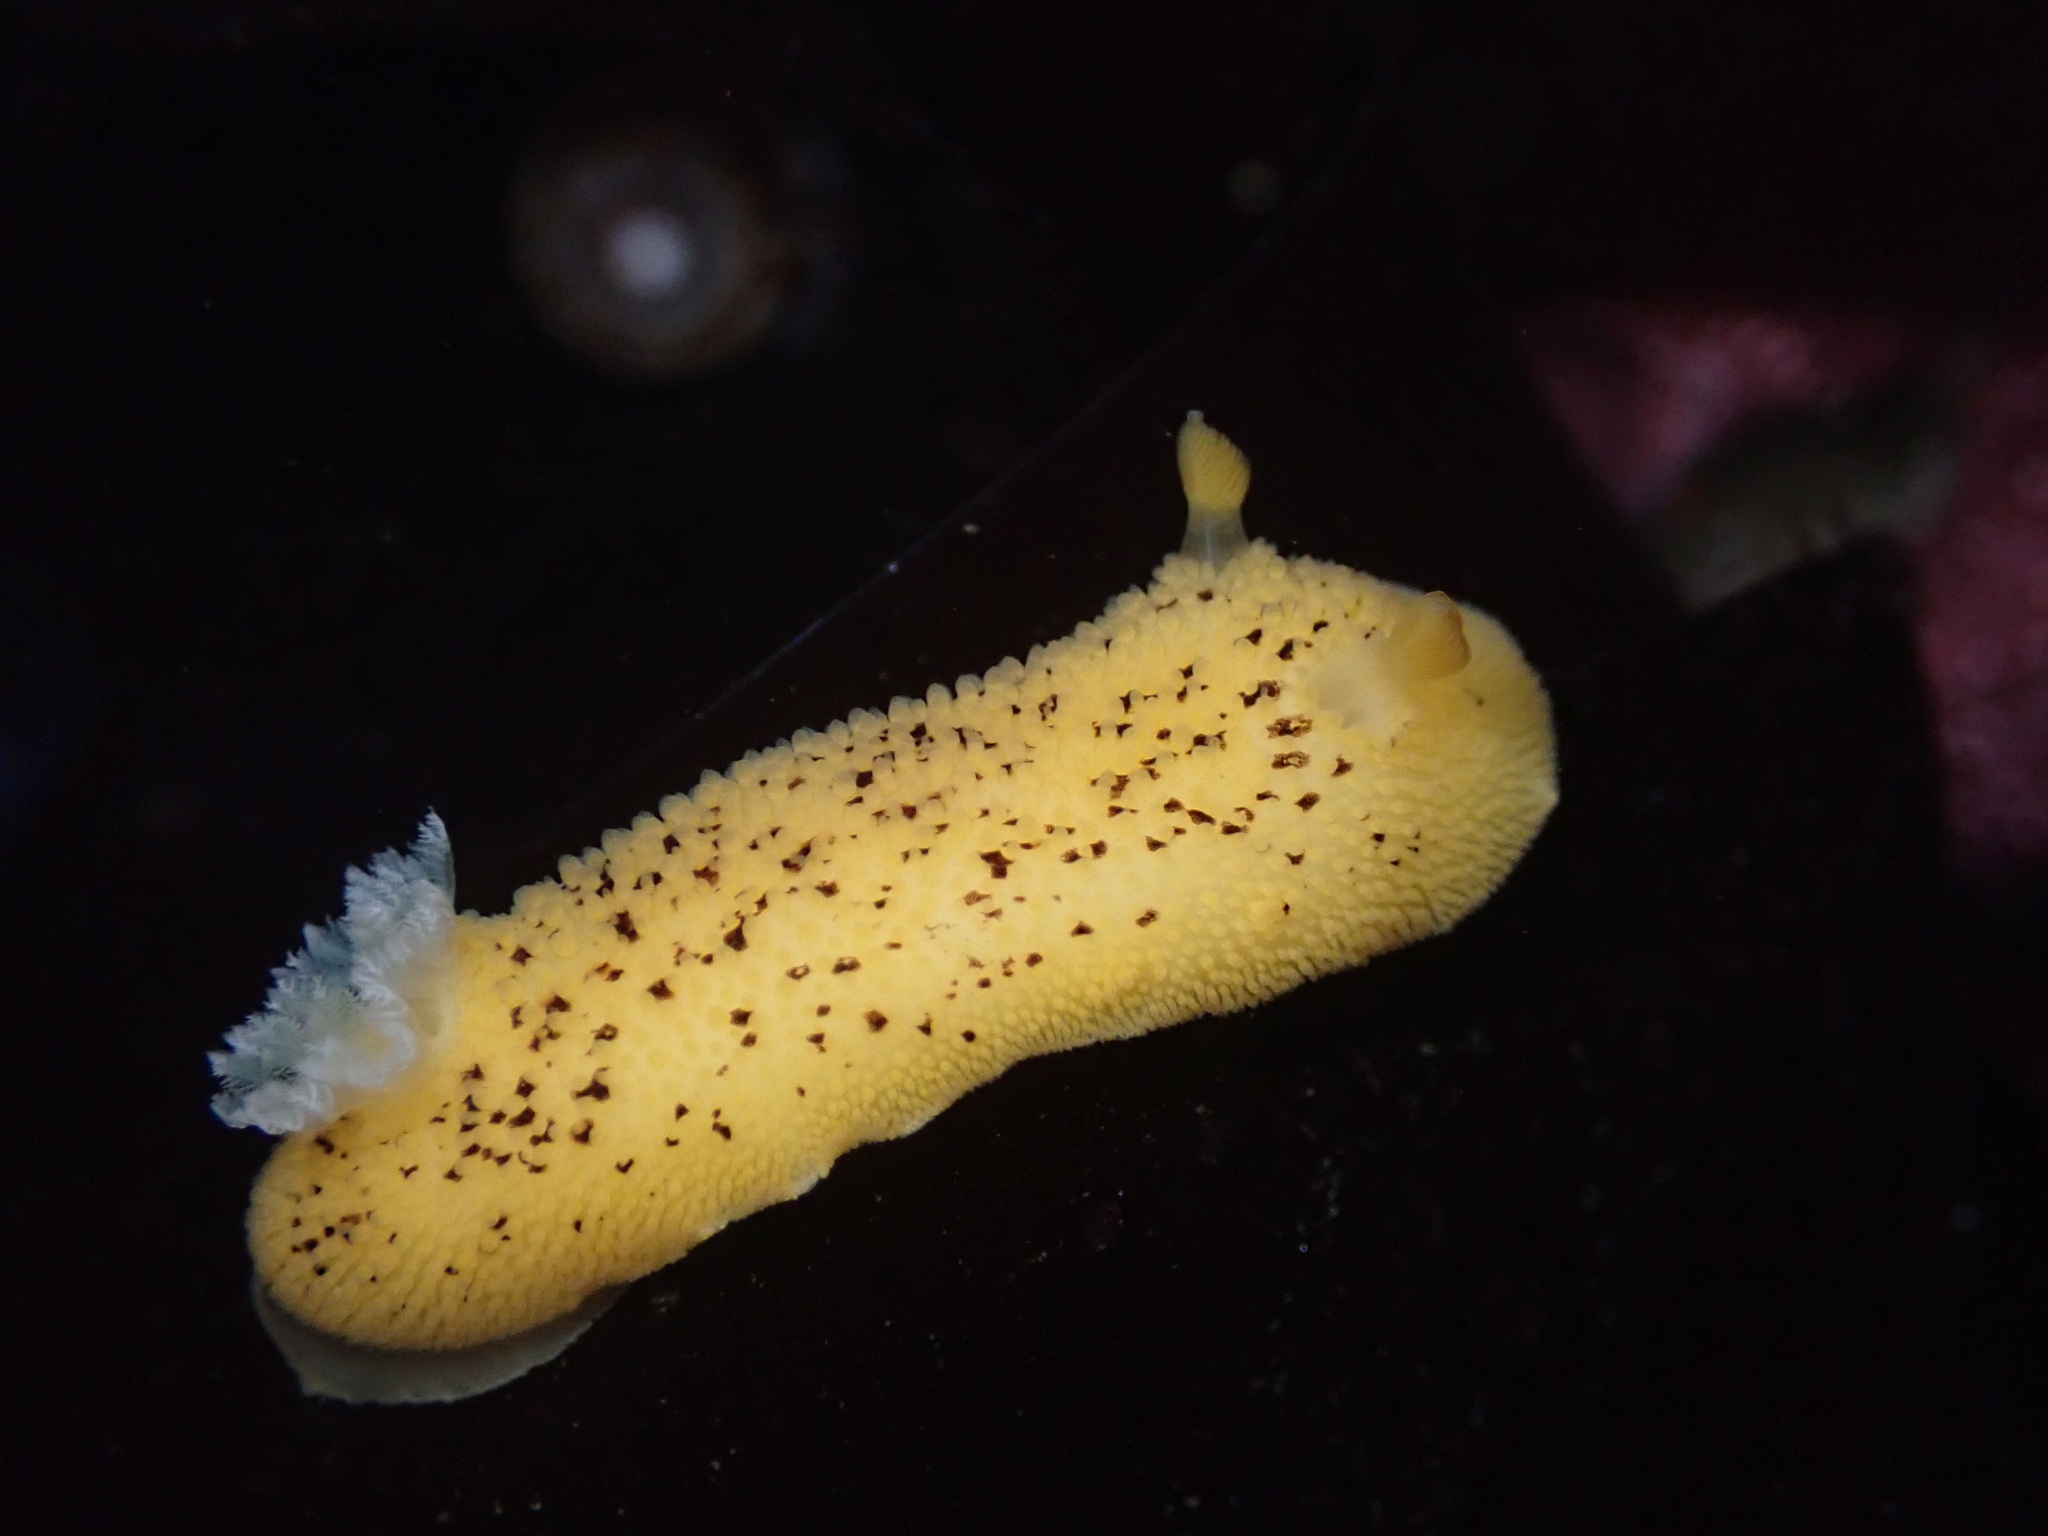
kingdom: Animalia
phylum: Mollusca
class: Gastropoda
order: Nudibranchia
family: Discodorididae
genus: Peltodoris
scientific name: Peltodoris nobilis
